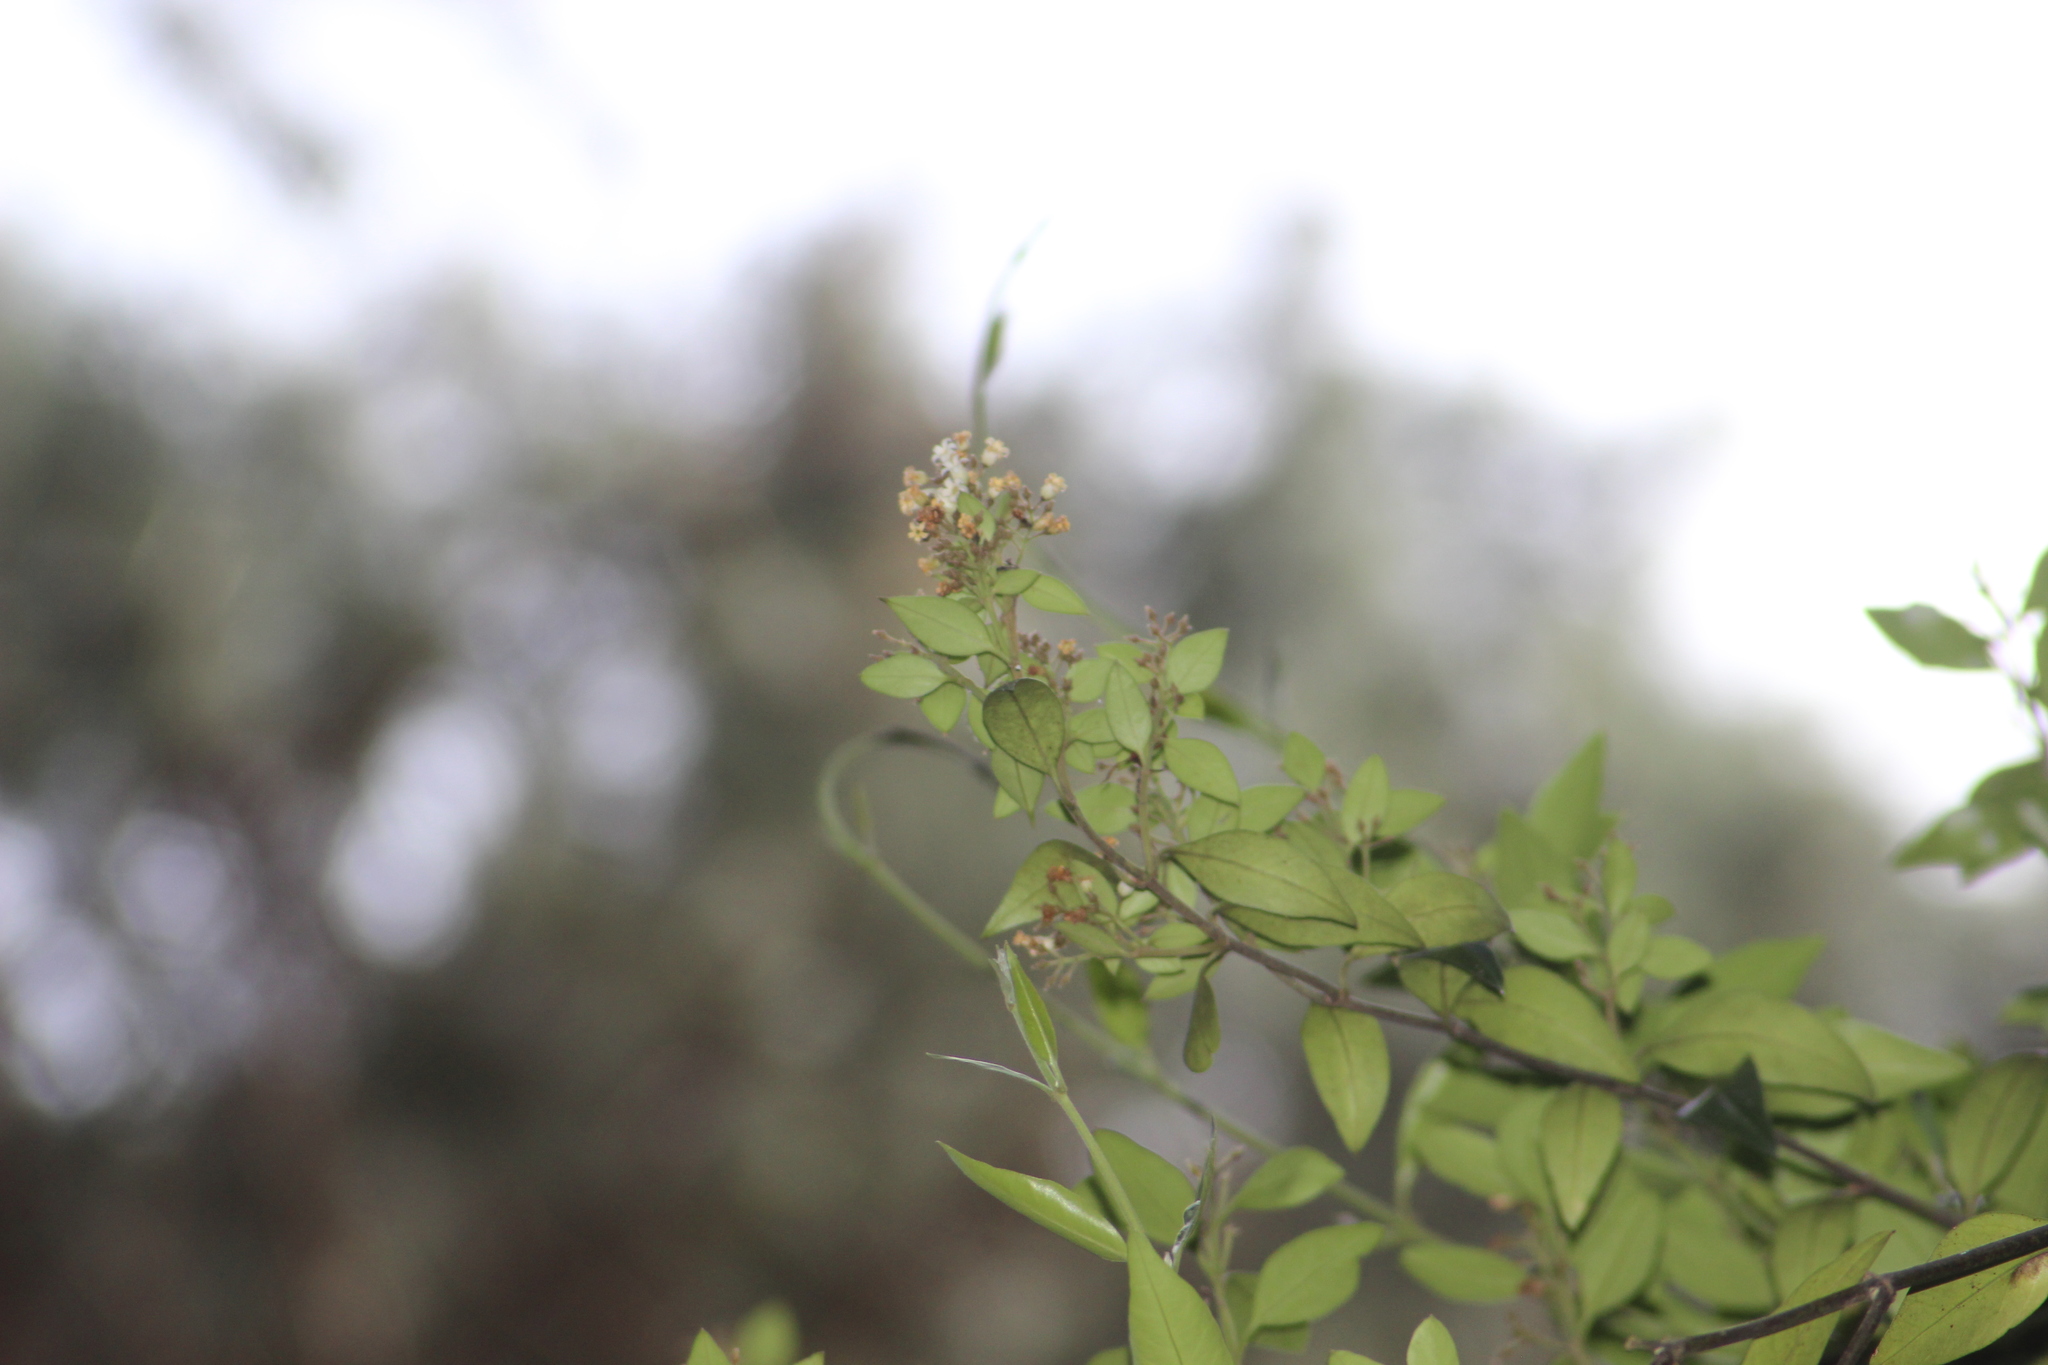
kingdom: Plantae
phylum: Tracheophyta
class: Magnoliopsida
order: Gentianales
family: Apocynaceae
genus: Parsonsia
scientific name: Parsonsia heterophylla
